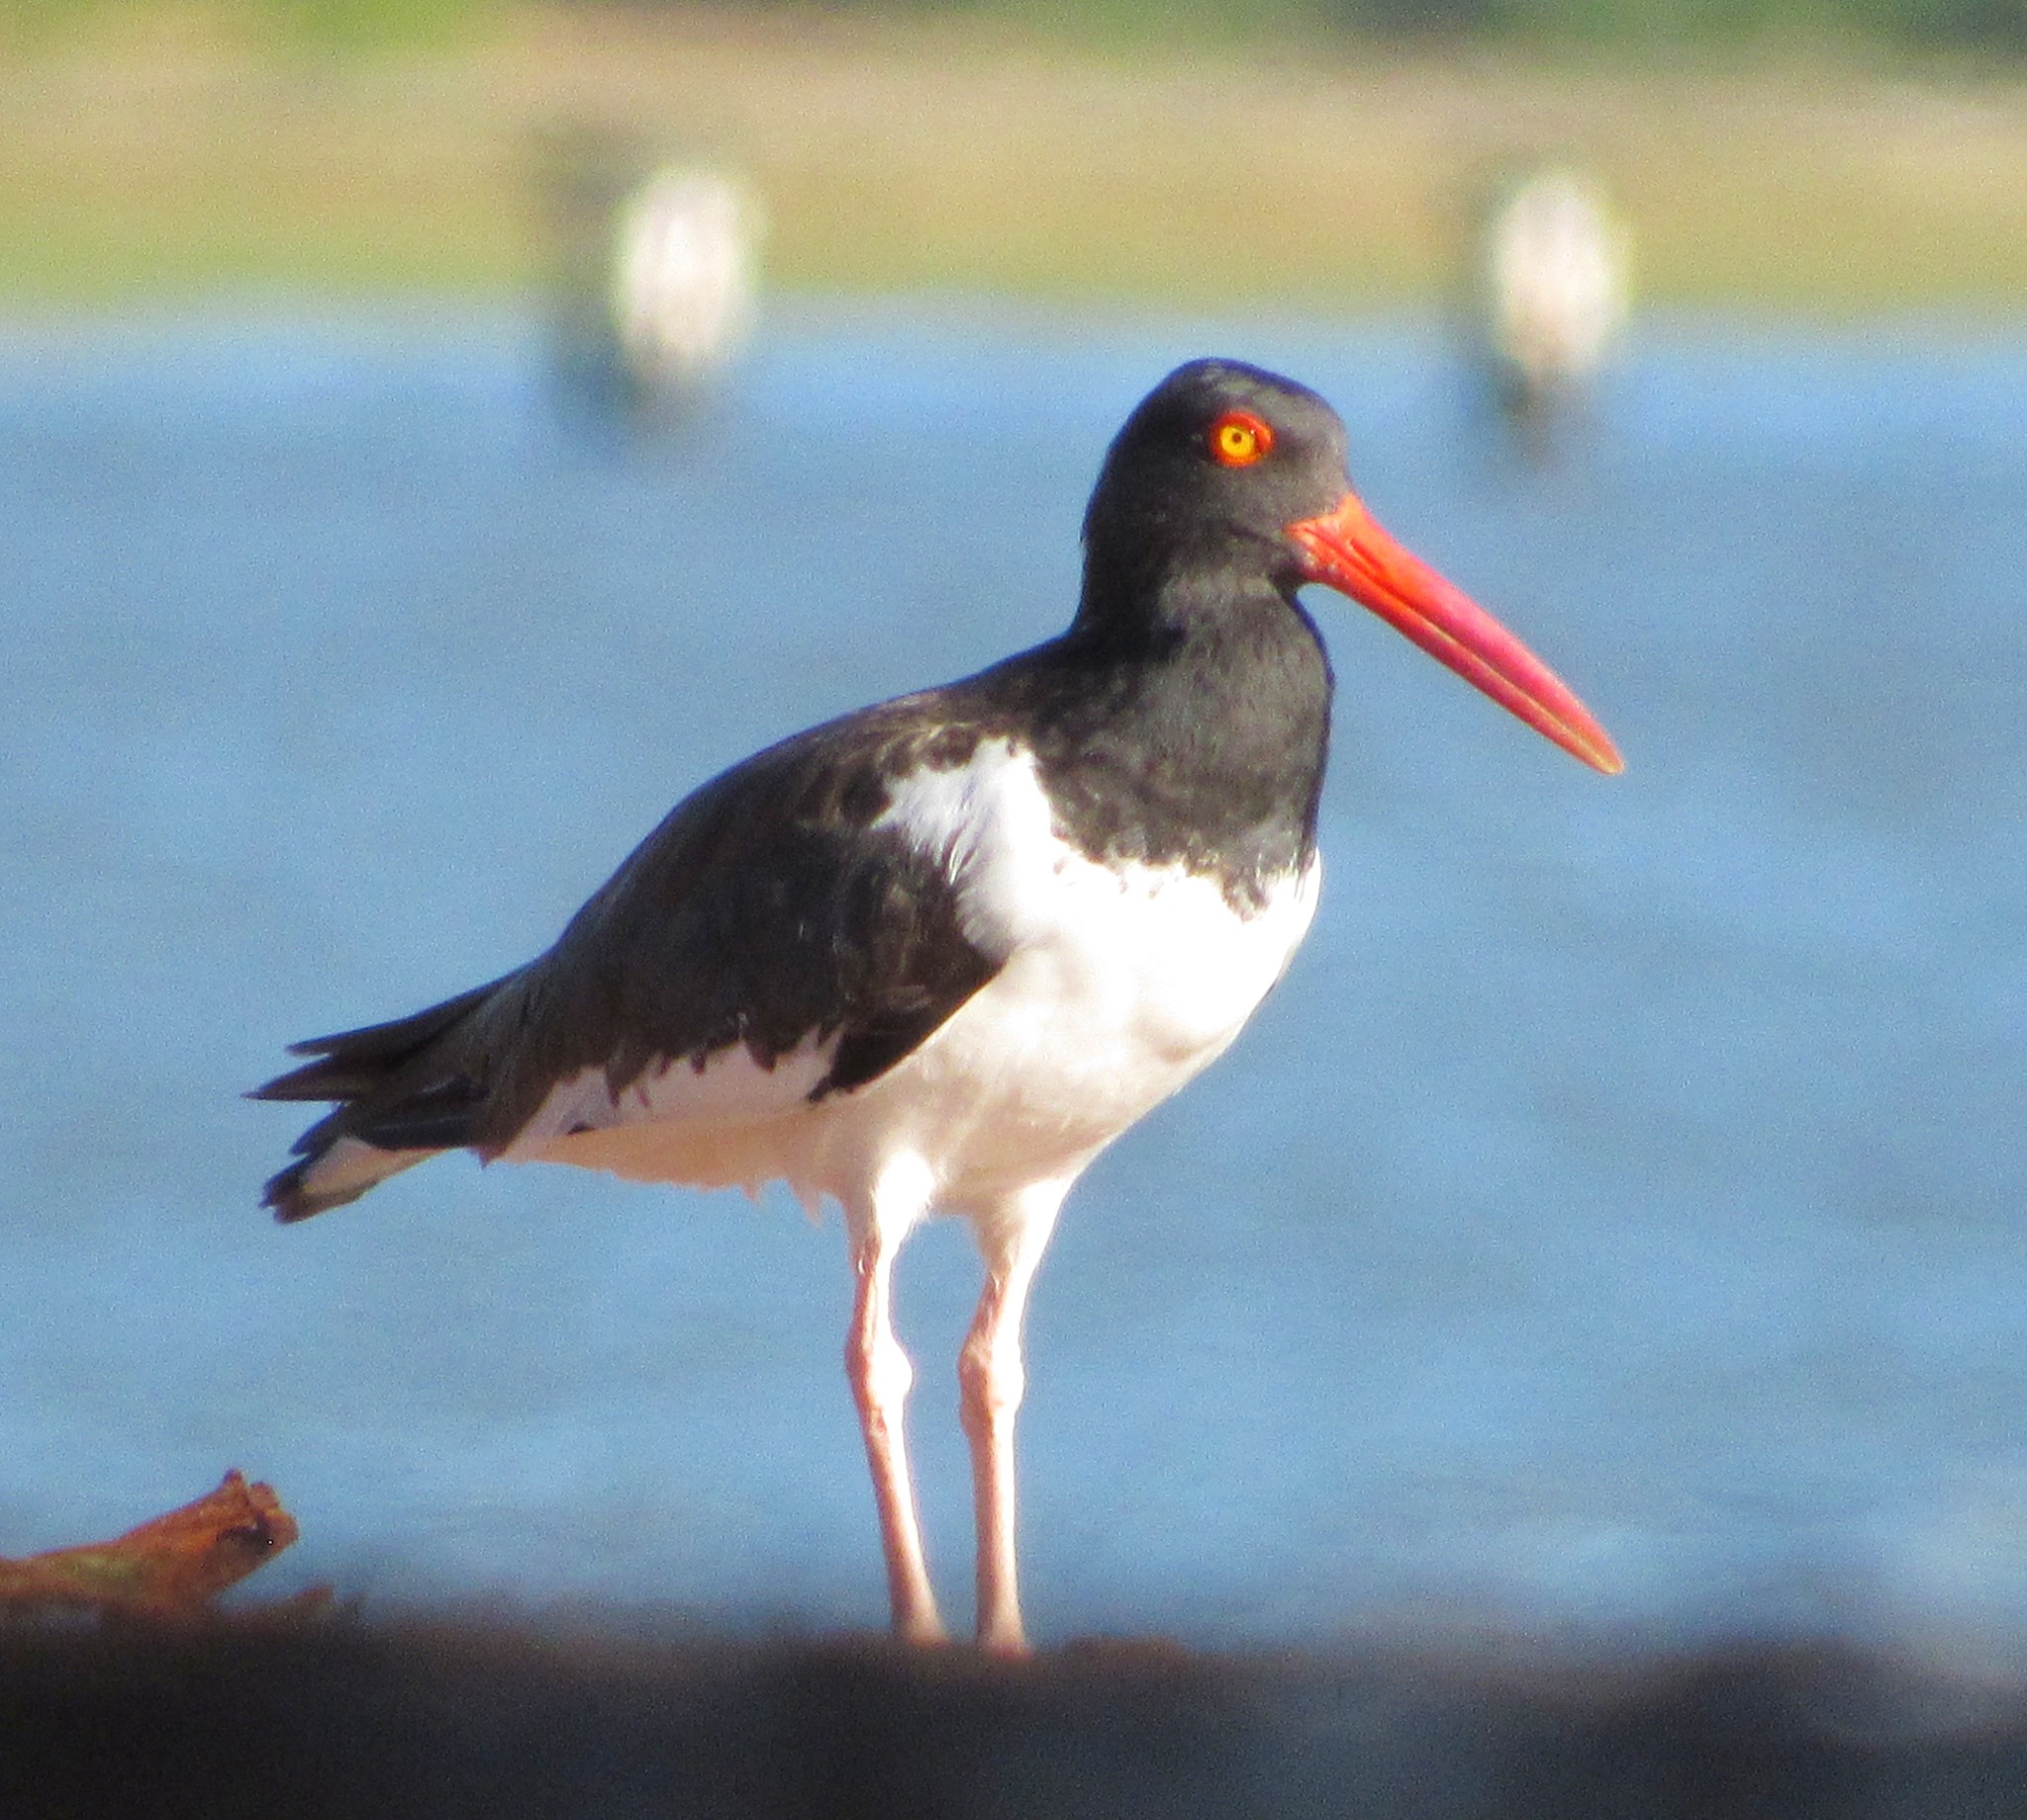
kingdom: Animalia
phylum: Chordata
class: Aves
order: Charadriiformes
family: Haematopodidae
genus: Haematopus
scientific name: Haematopus palliatus
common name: American oystercatcher
